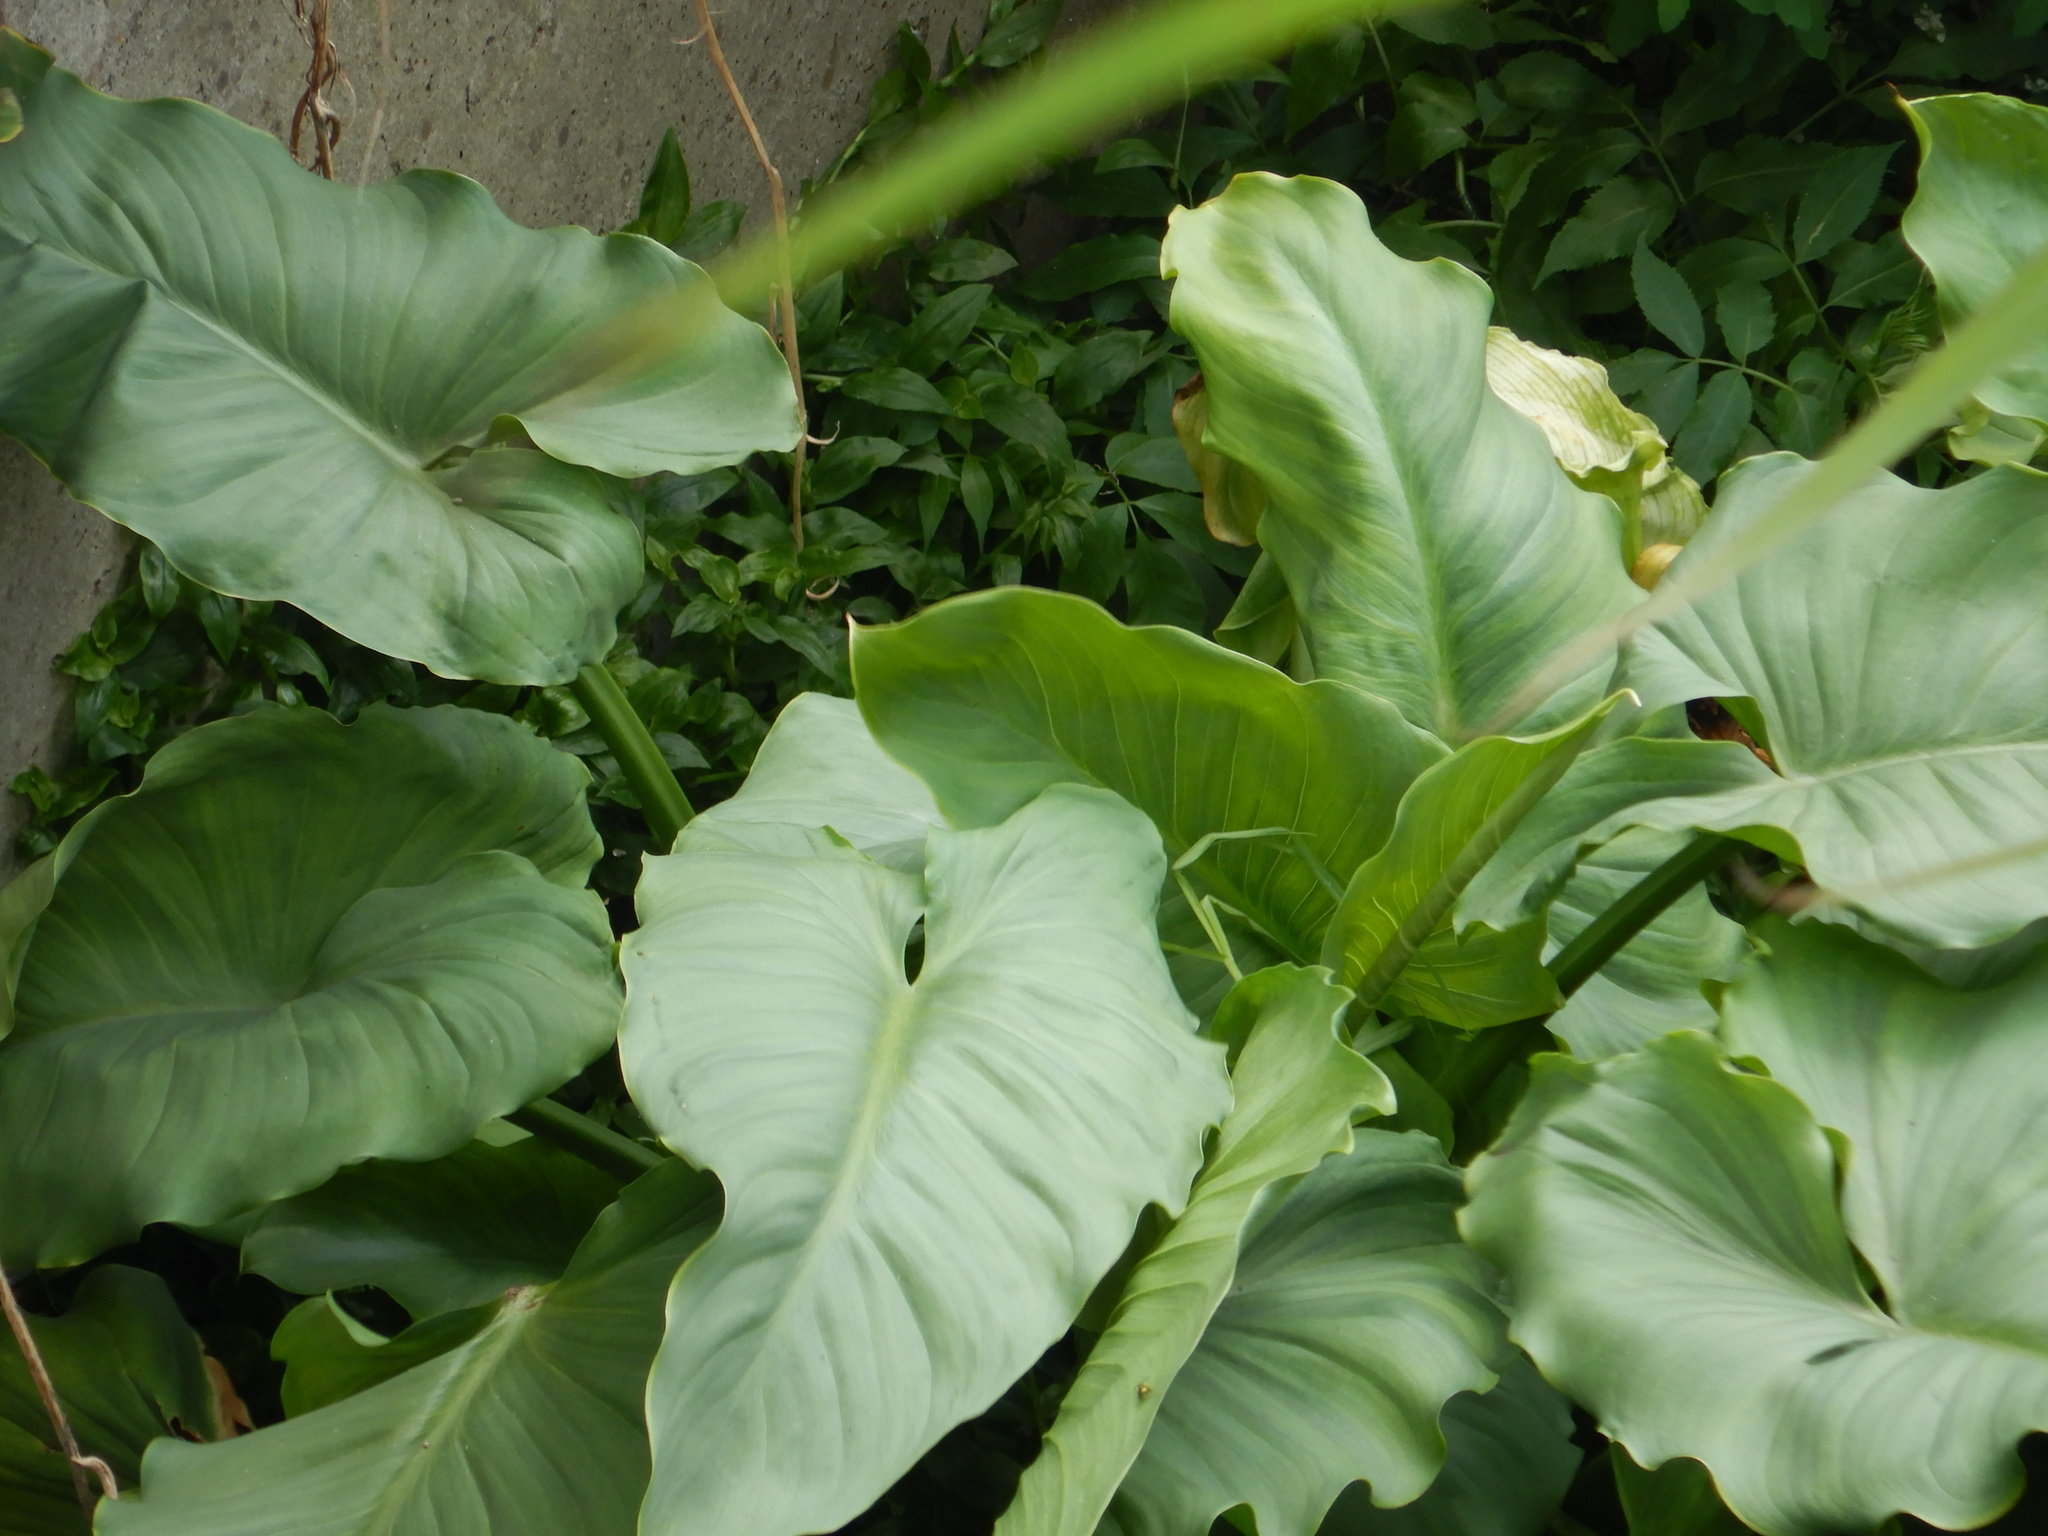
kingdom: Plantae
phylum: Tracheophyta
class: Liliopsida
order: Alismatales
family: Araceae
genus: Zantedeschia
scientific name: Zantedeschia aethiopica
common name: Altar-lily
